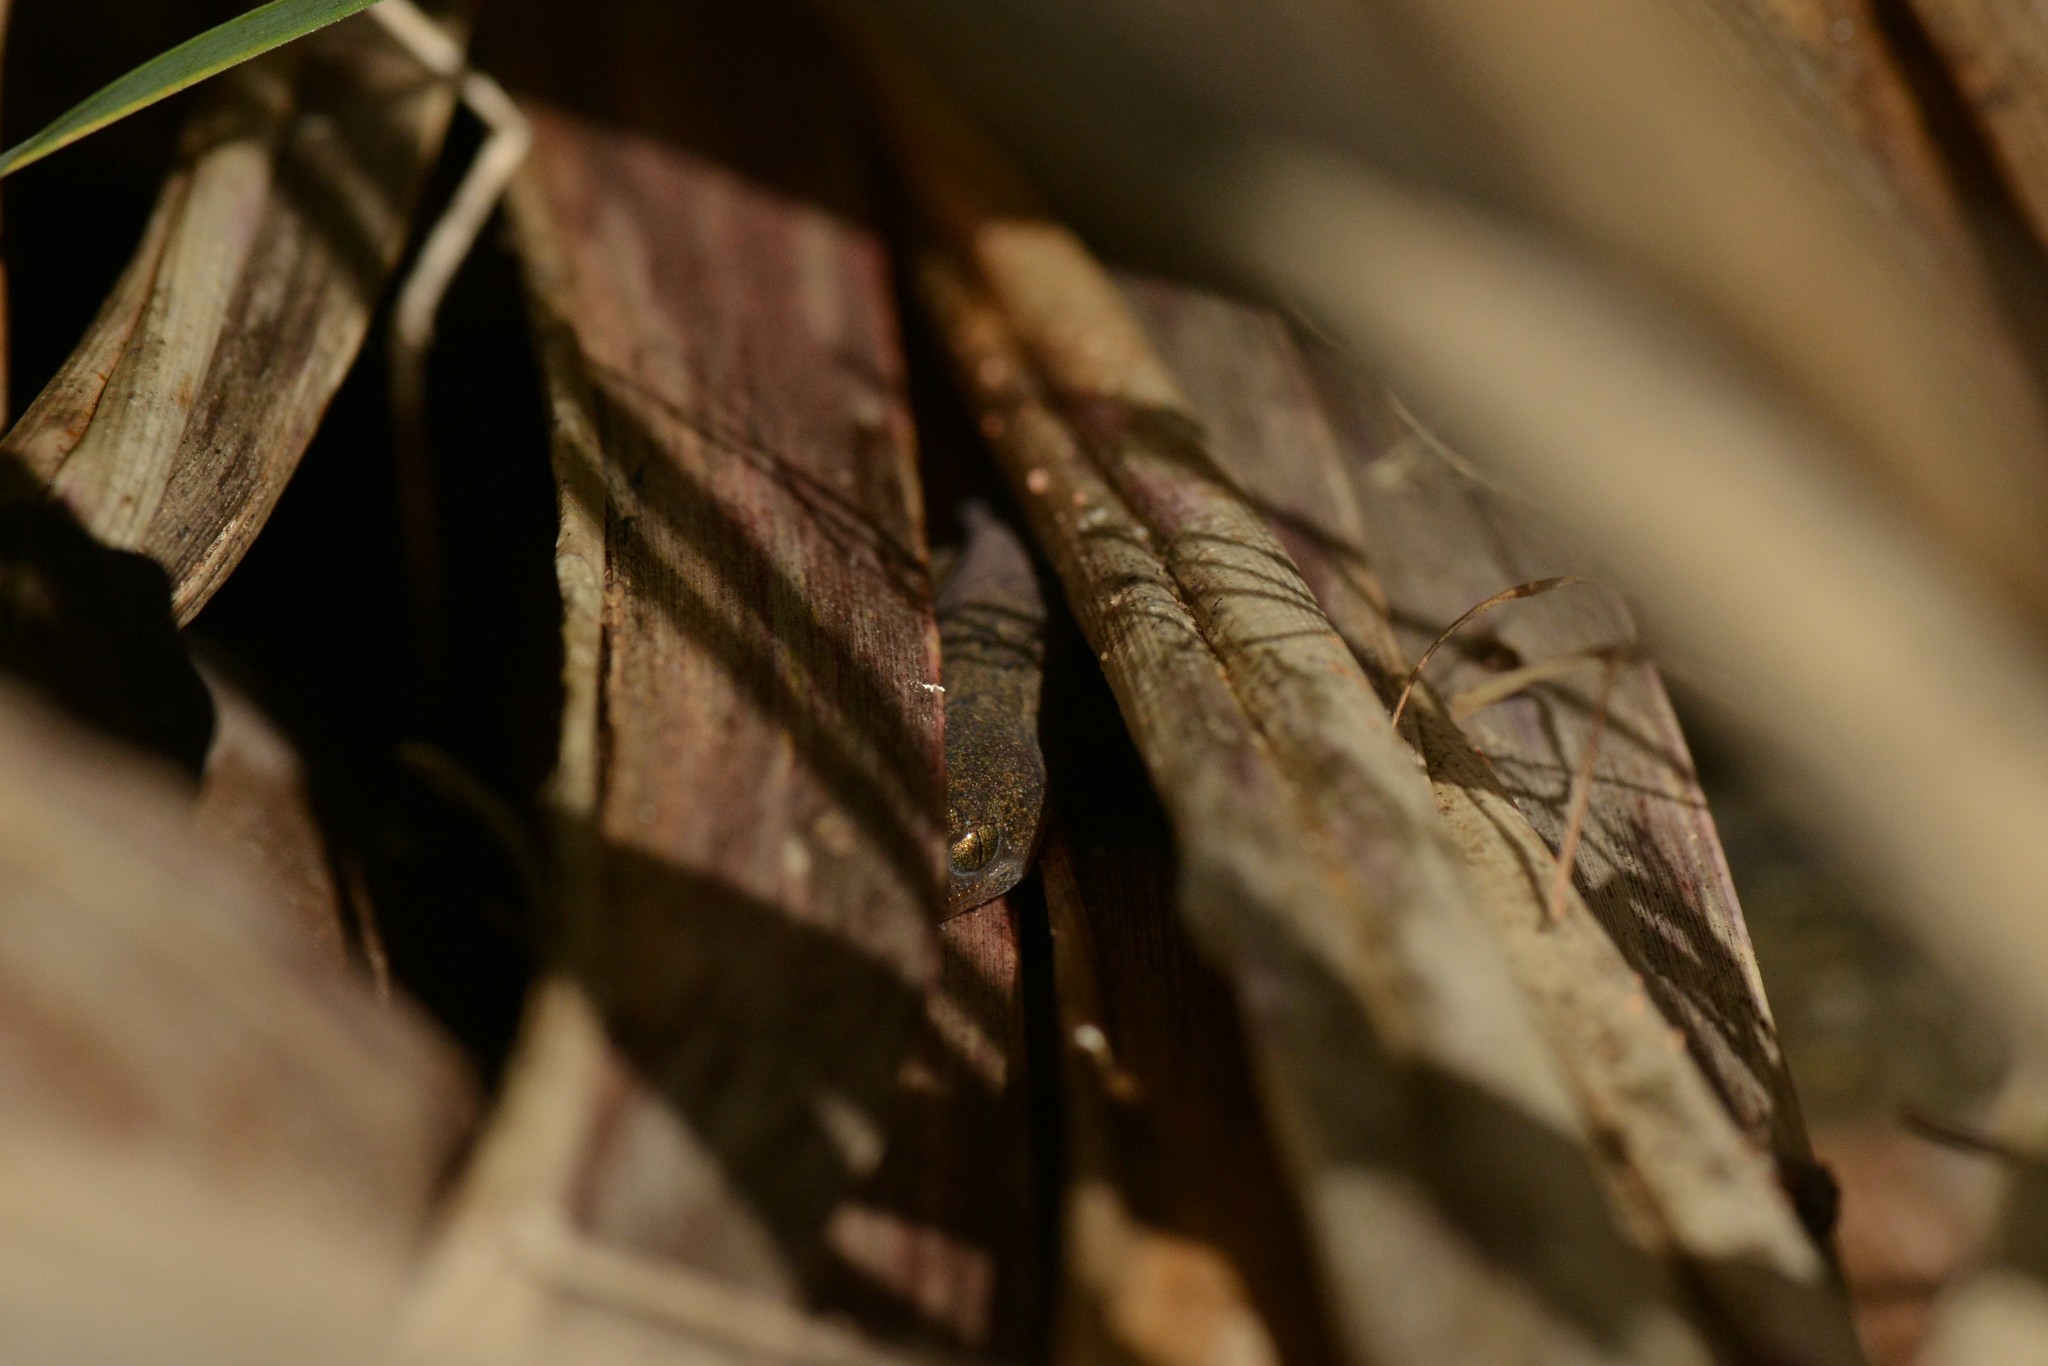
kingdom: Animalia
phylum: Chordata
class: Squamata
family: Diplodactylidae
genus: Woodworthia
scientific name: Woodworthia maculata
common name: Raukawa gecko
